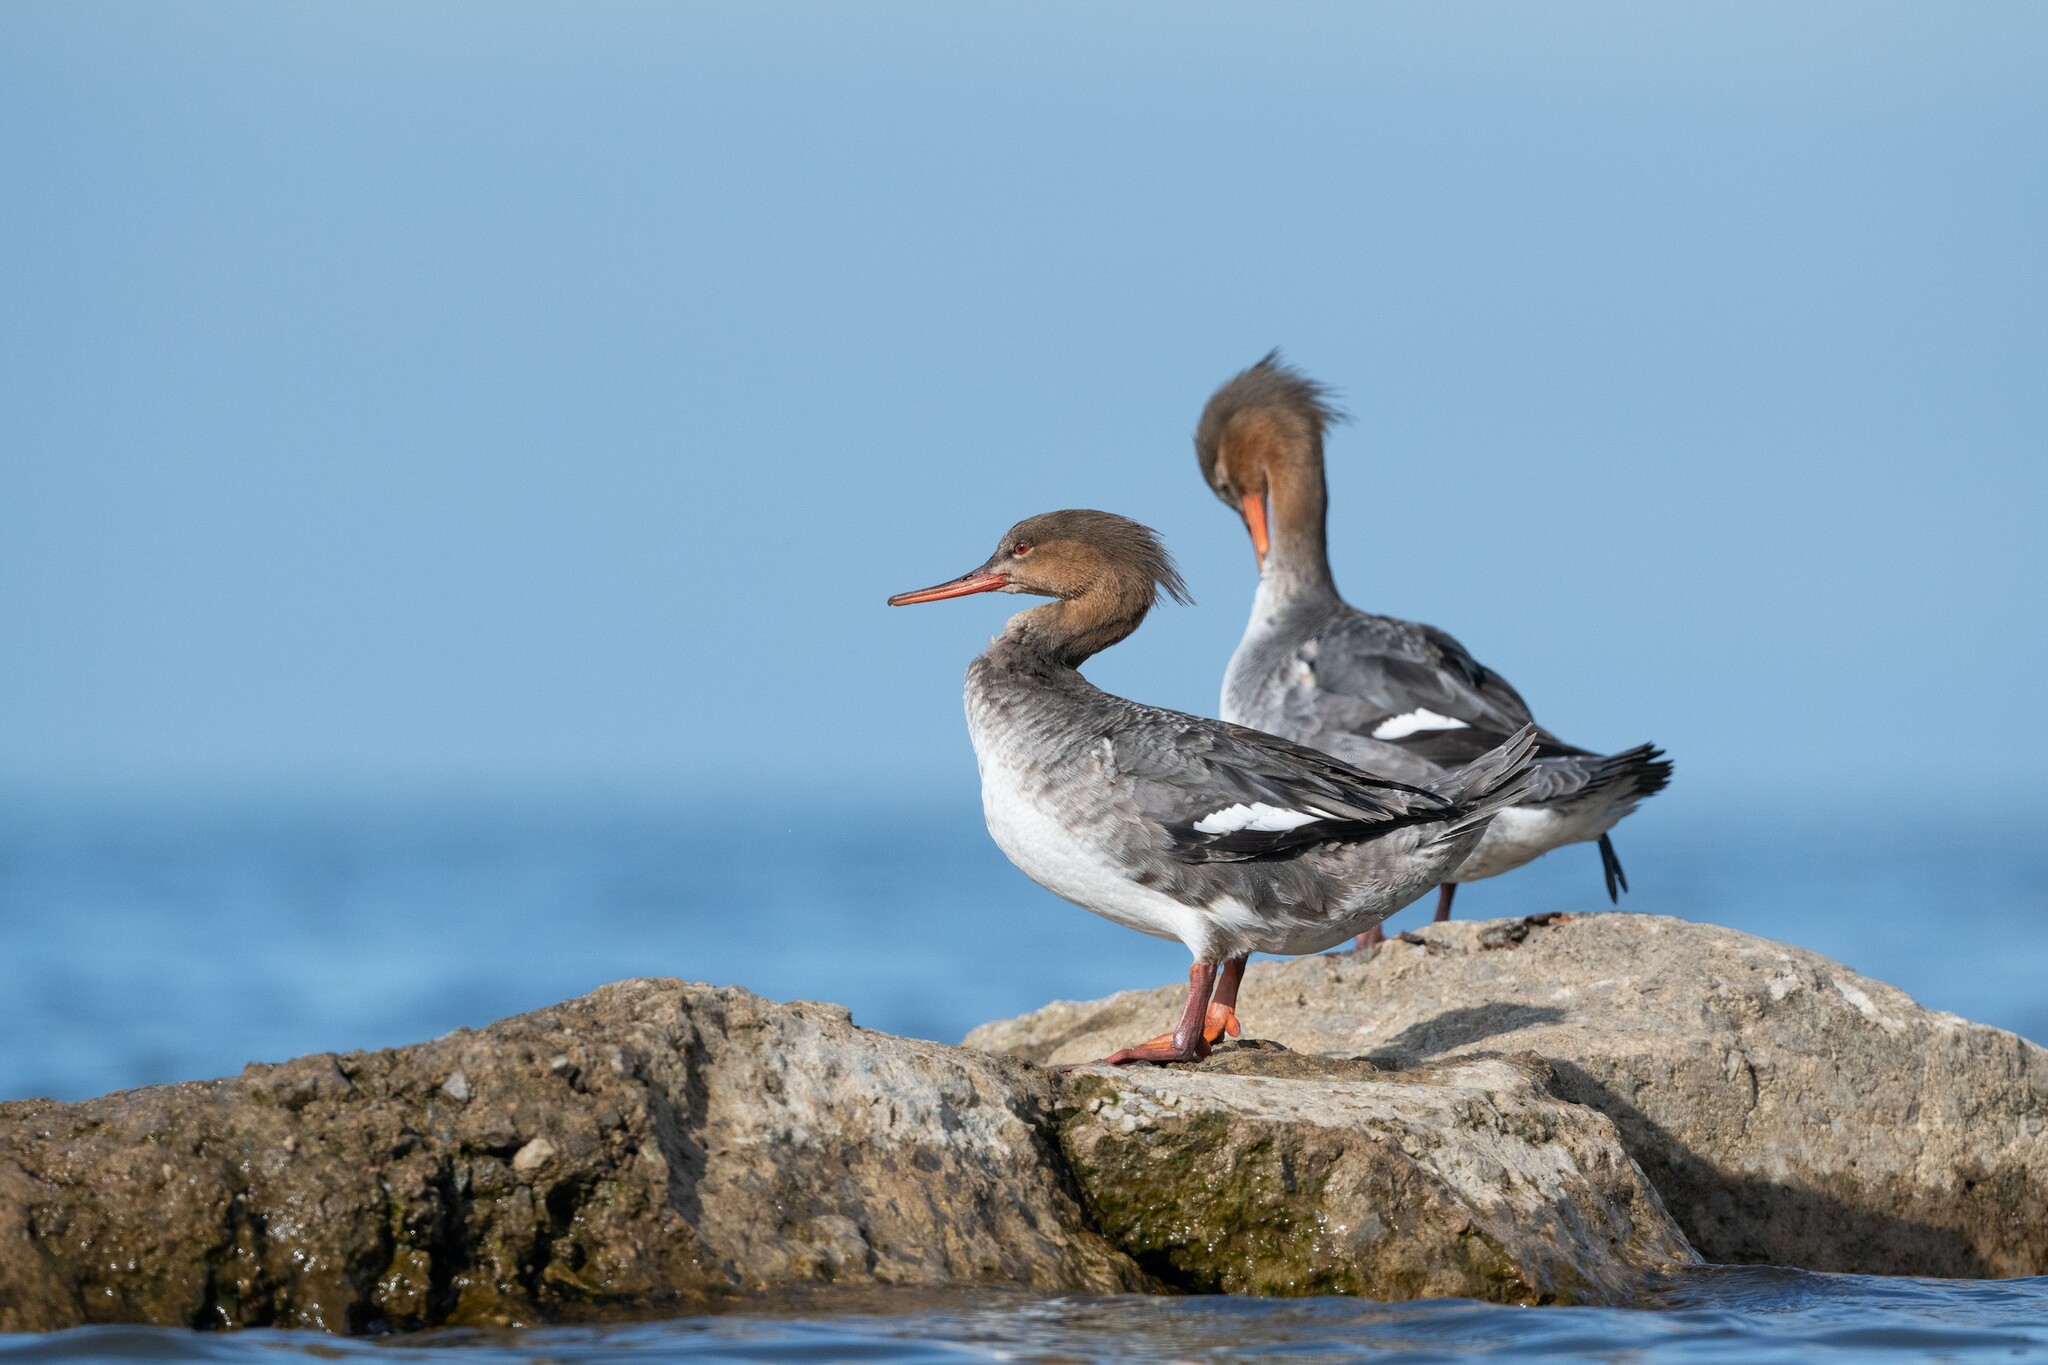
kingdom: Animalia
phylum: Chordata
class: Aves
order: Anseriformes
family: Anatidae
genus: Mergus
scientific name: Mergus serrator
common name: Red-breasted merganser
